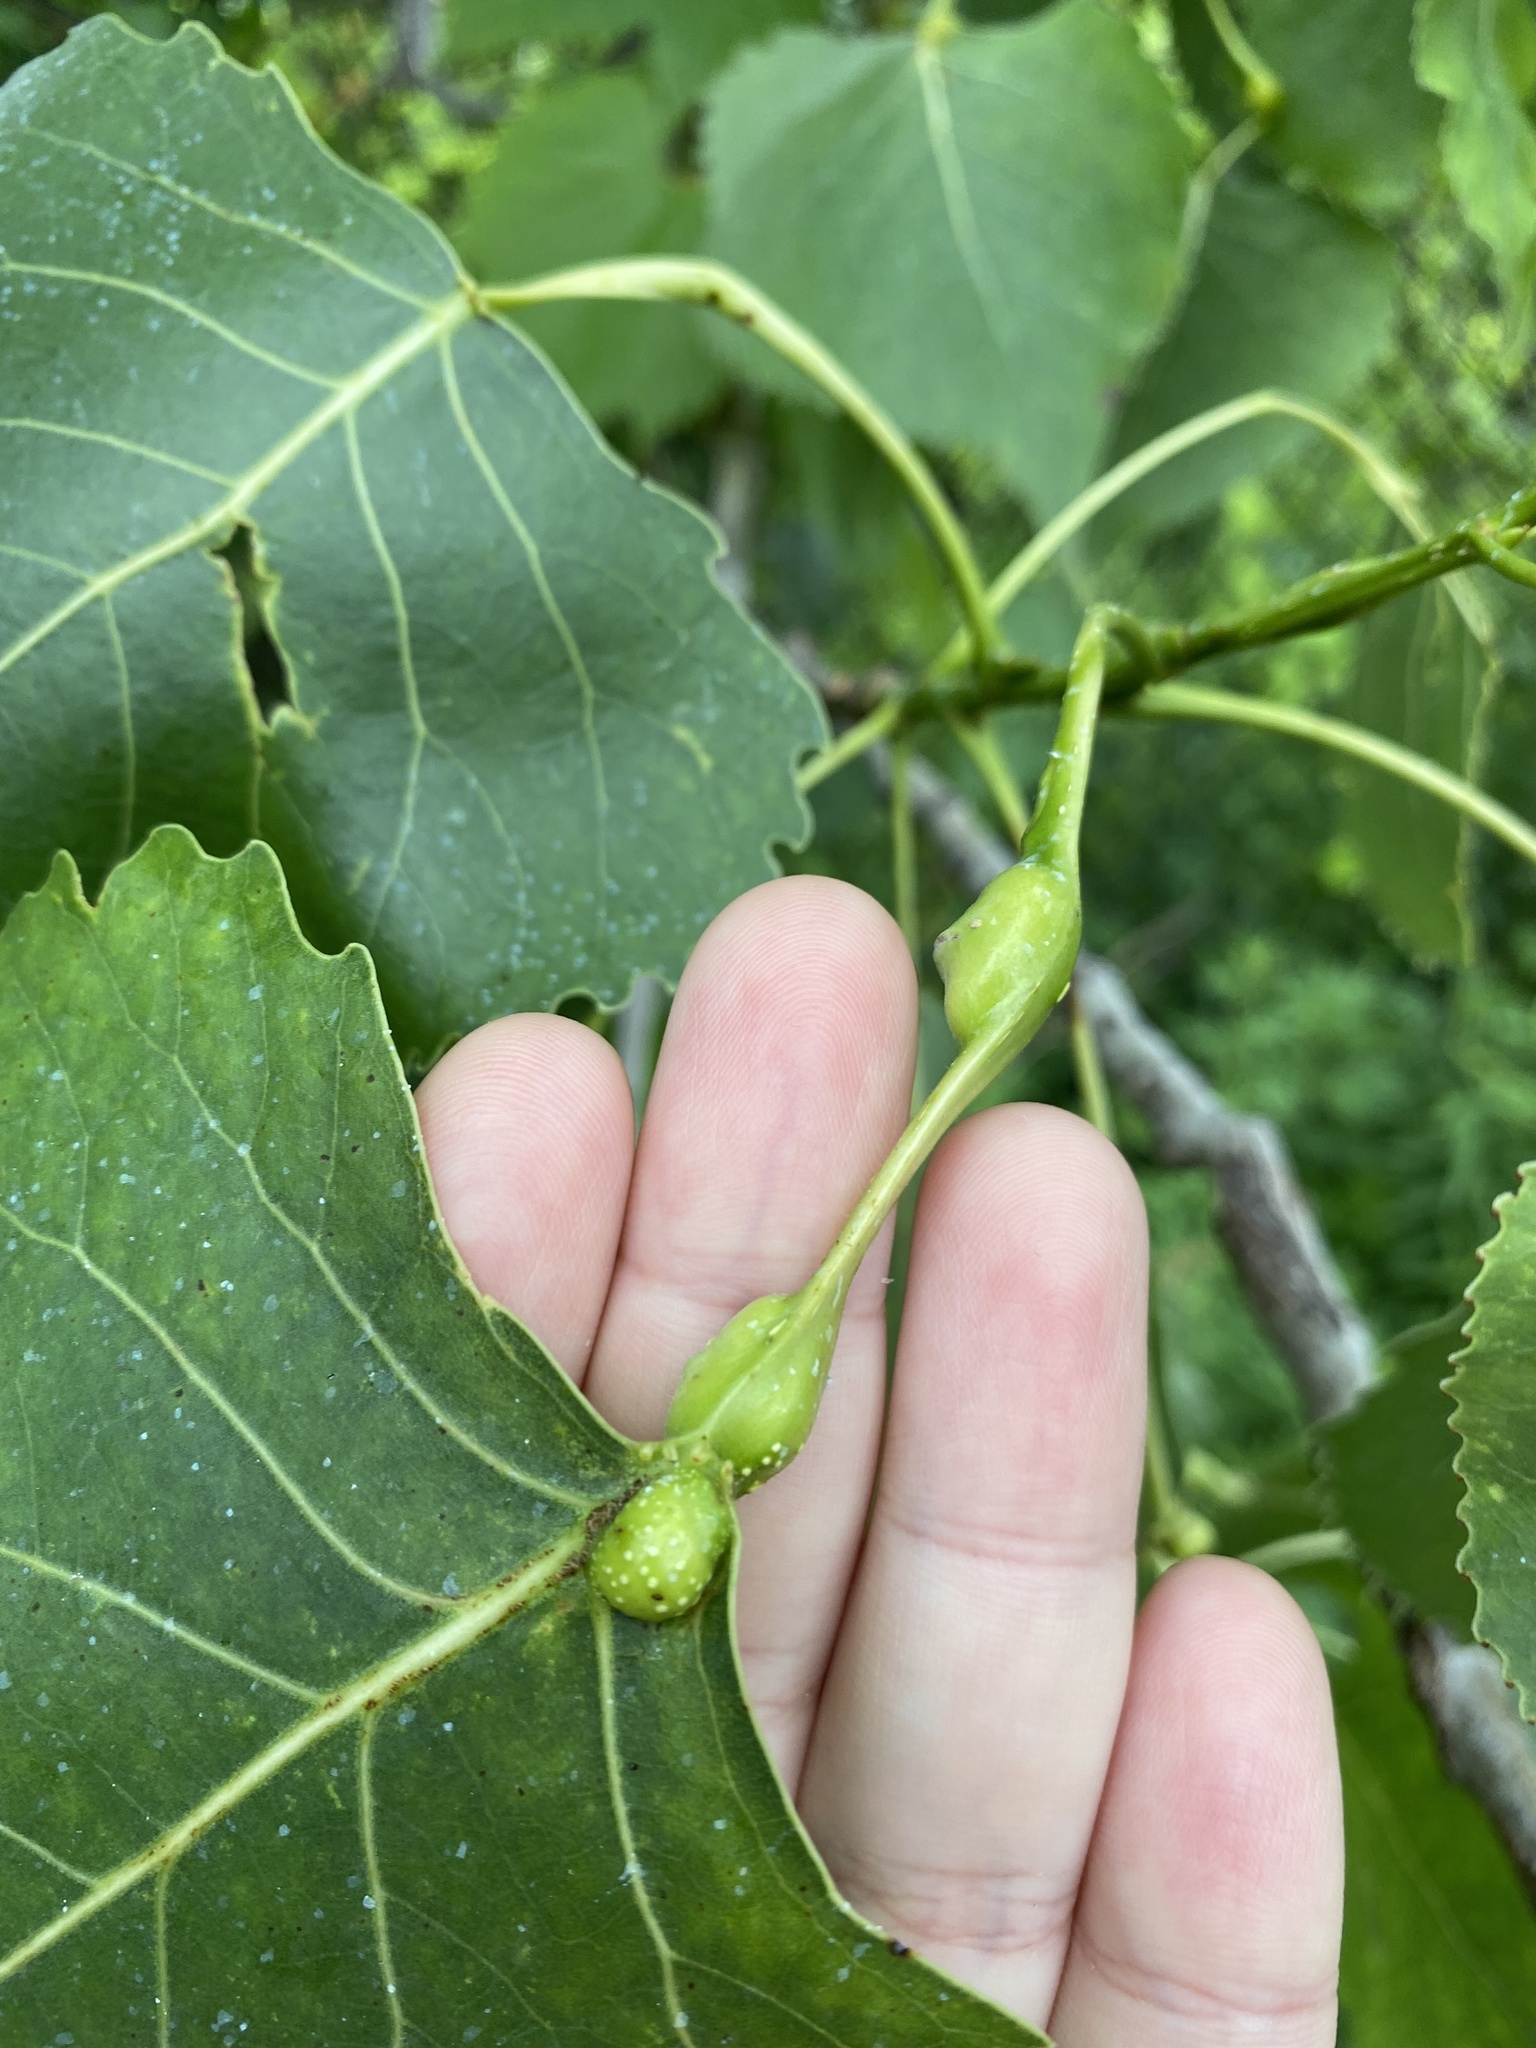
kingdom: Animalia
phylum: Arthropoda
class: Insecta
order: Hemiptera
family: Aphididae
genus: Pemphigus
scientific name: Pemphigus populitransversus
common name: Poplar petiolegall aphid
